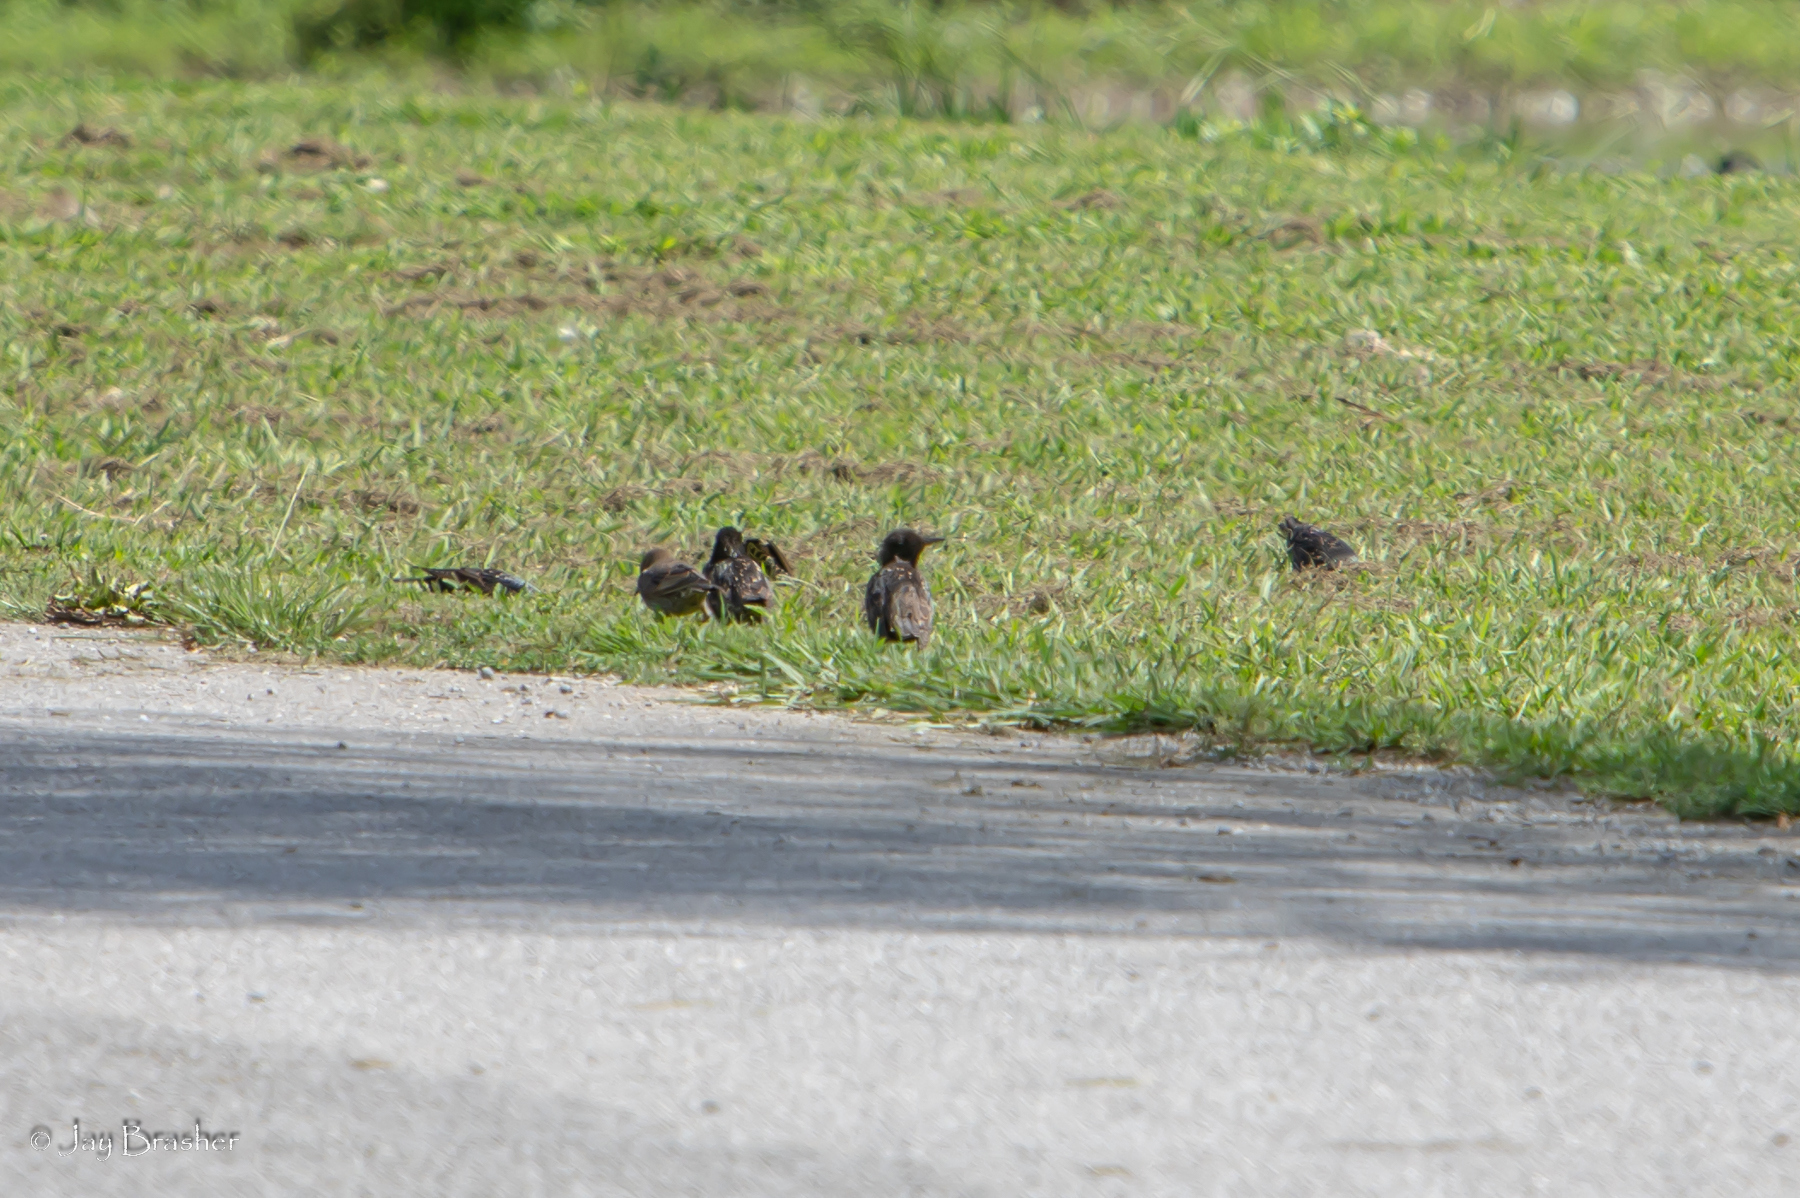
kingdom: Animalia
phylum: Chordata
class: Aves
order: Passeriformes
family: Sturnidae
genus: Sturnus
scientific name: Sturnus vulgaris
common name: Common starling
